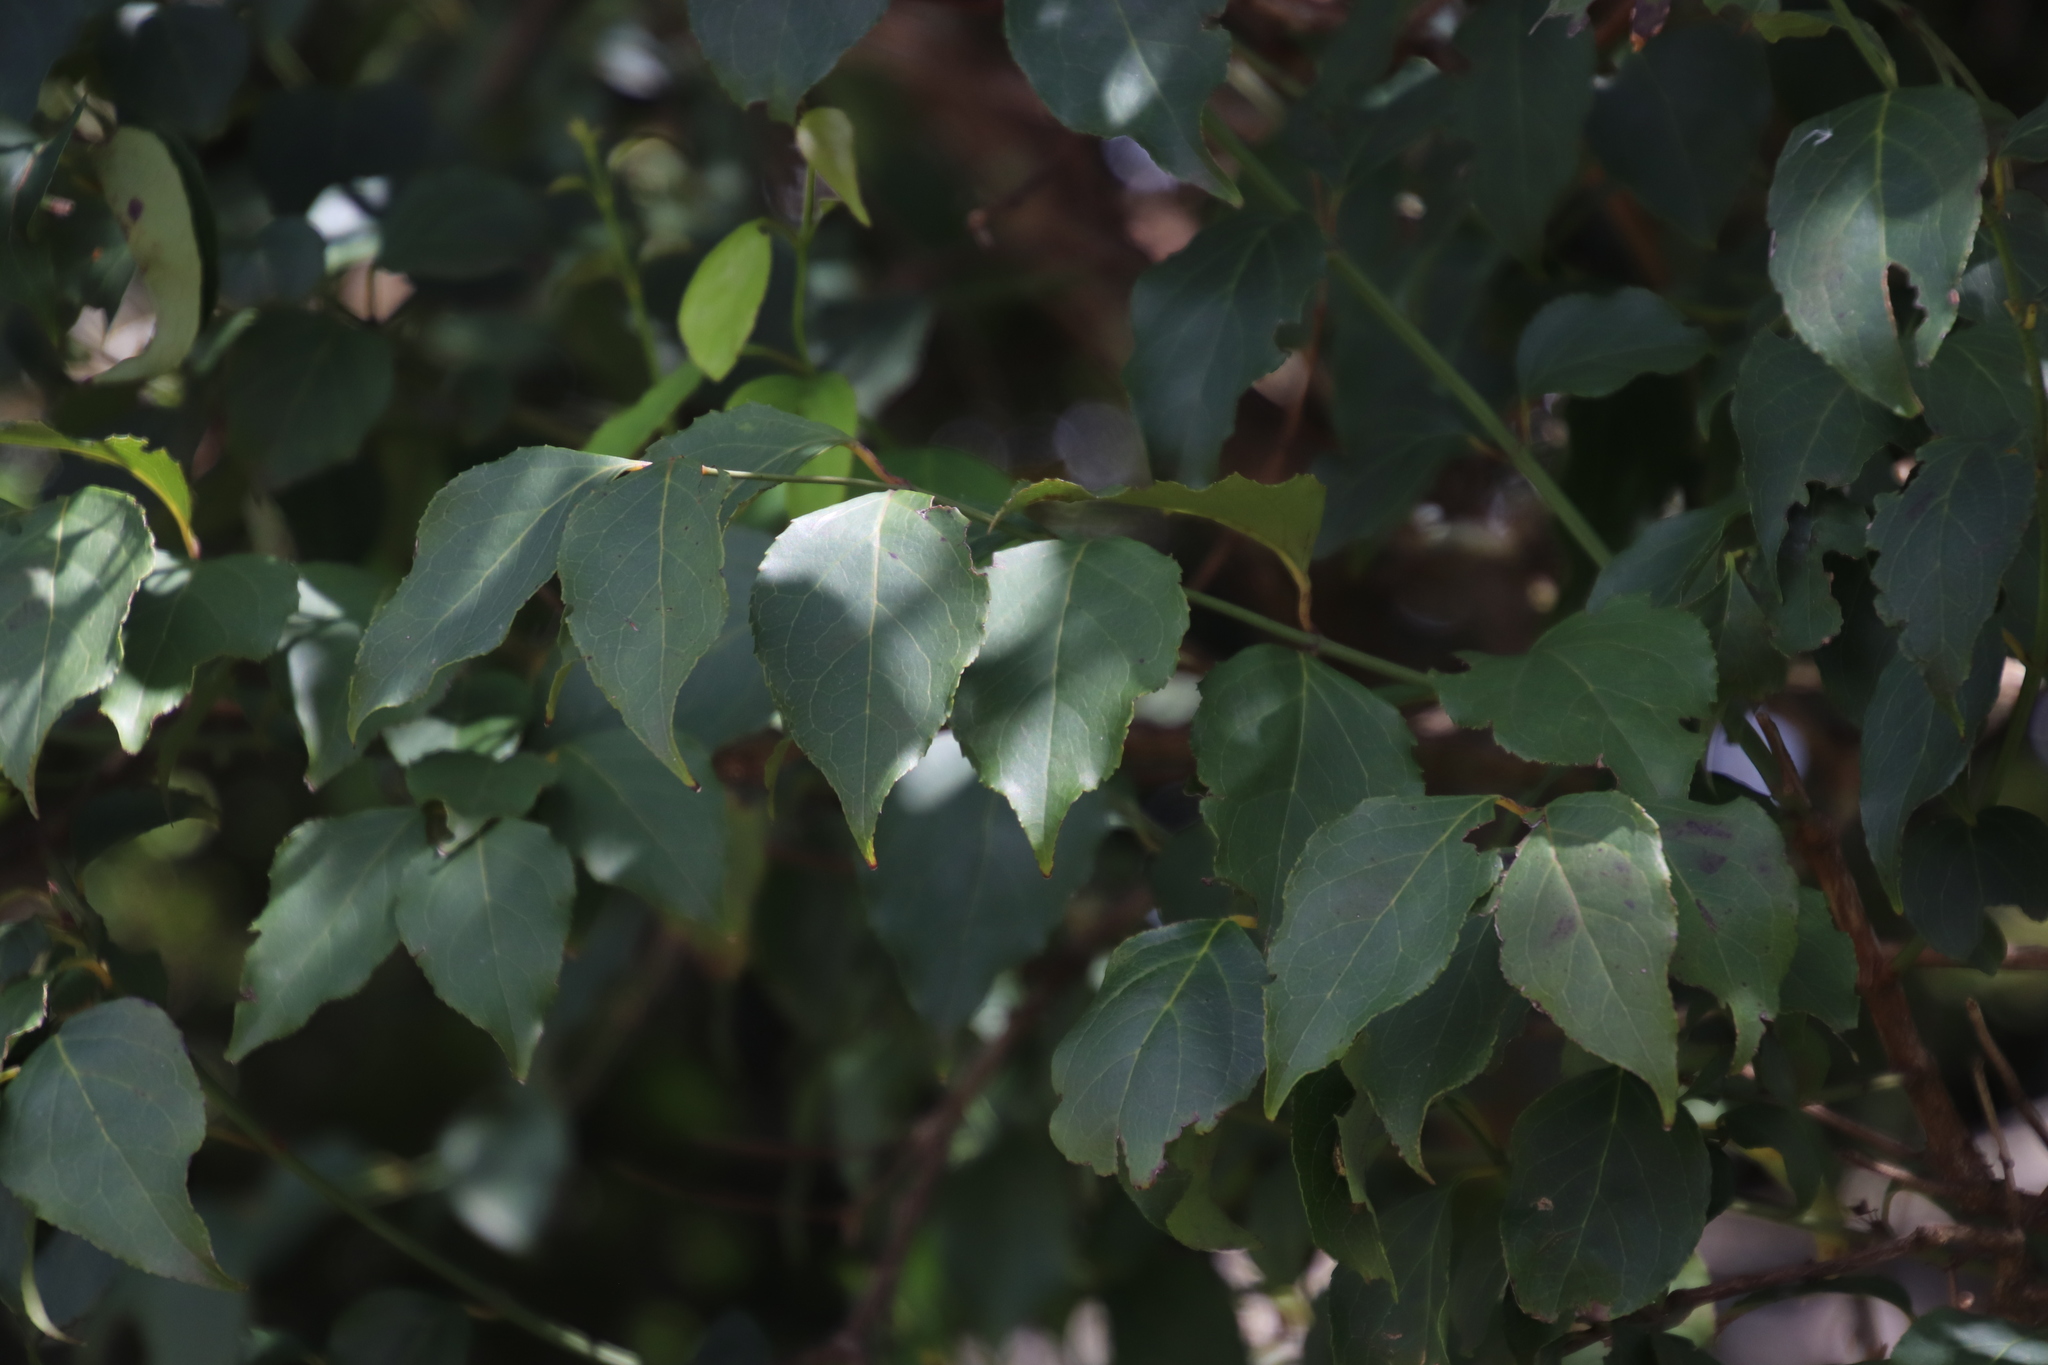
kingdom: Plantae
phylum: Tracheophyta
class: Magnoliopsida
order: Lamiales
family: Stilbaceae
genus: Halleria
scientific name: Halleria lucida
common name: Tree fuschia
